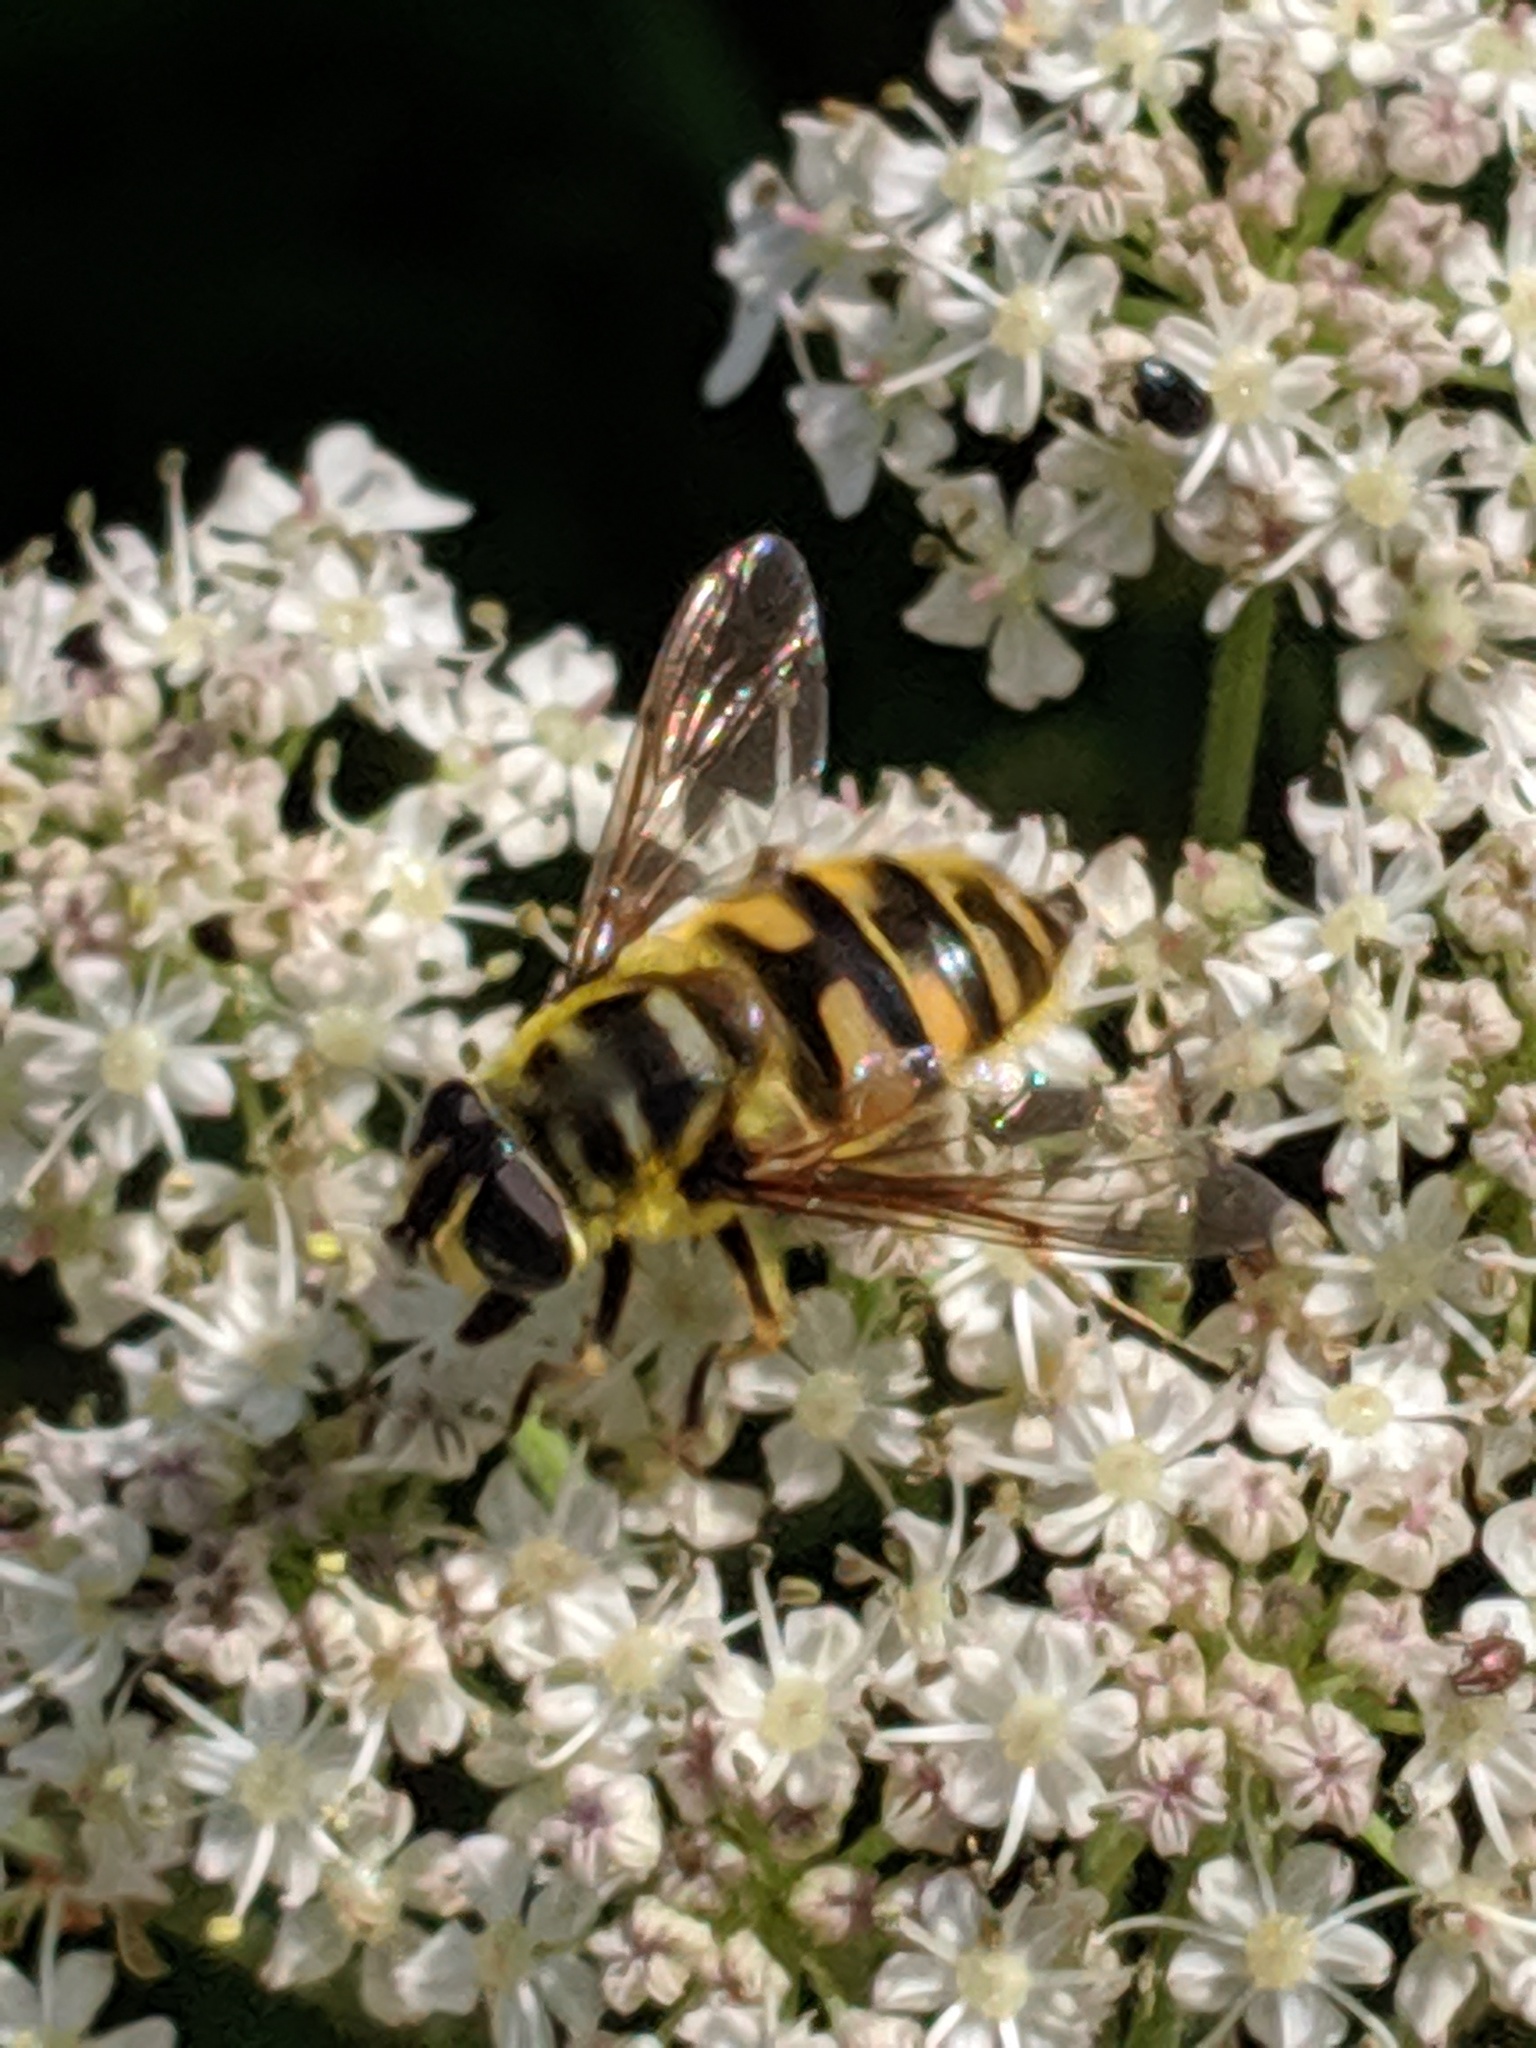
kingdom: Animalia
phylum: Arthropoda
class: Insecta
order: Diptera
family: Syrphidae
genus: Myathropa
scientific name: Myathropa florea
